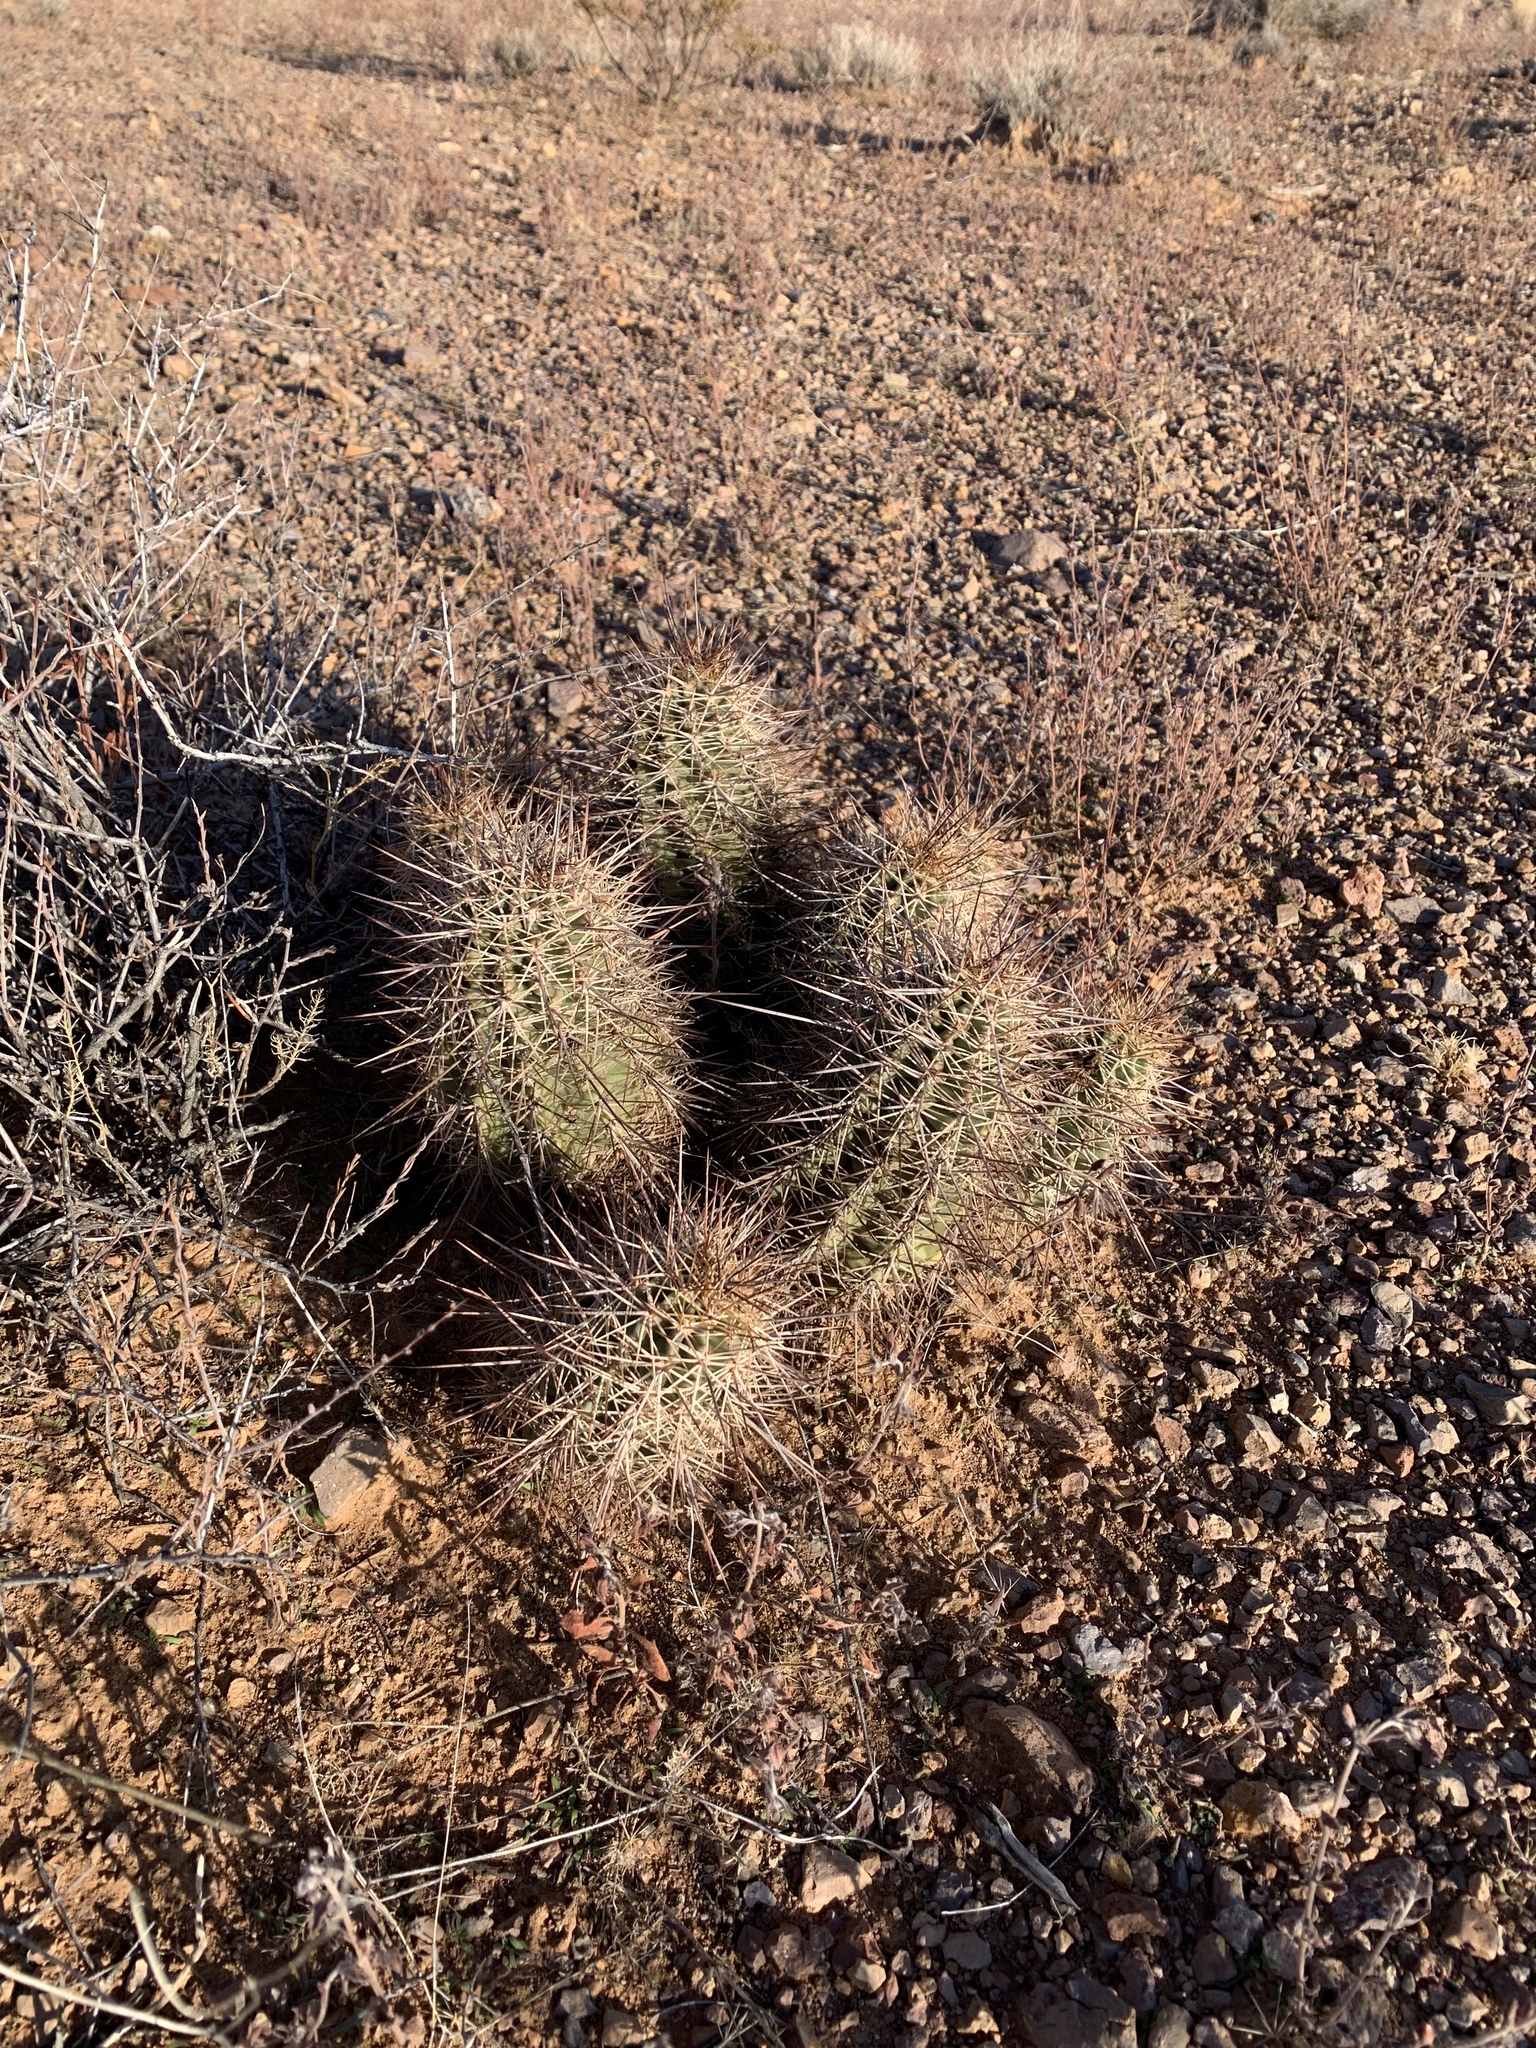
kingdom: Plantae
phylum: Tracheophyta
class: Magnoliopsida
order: Caryophyllales
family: Cactaceae
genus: Echinocereus
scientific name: Echinocereus coccineus
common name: Scarlet hedgehog cactus
